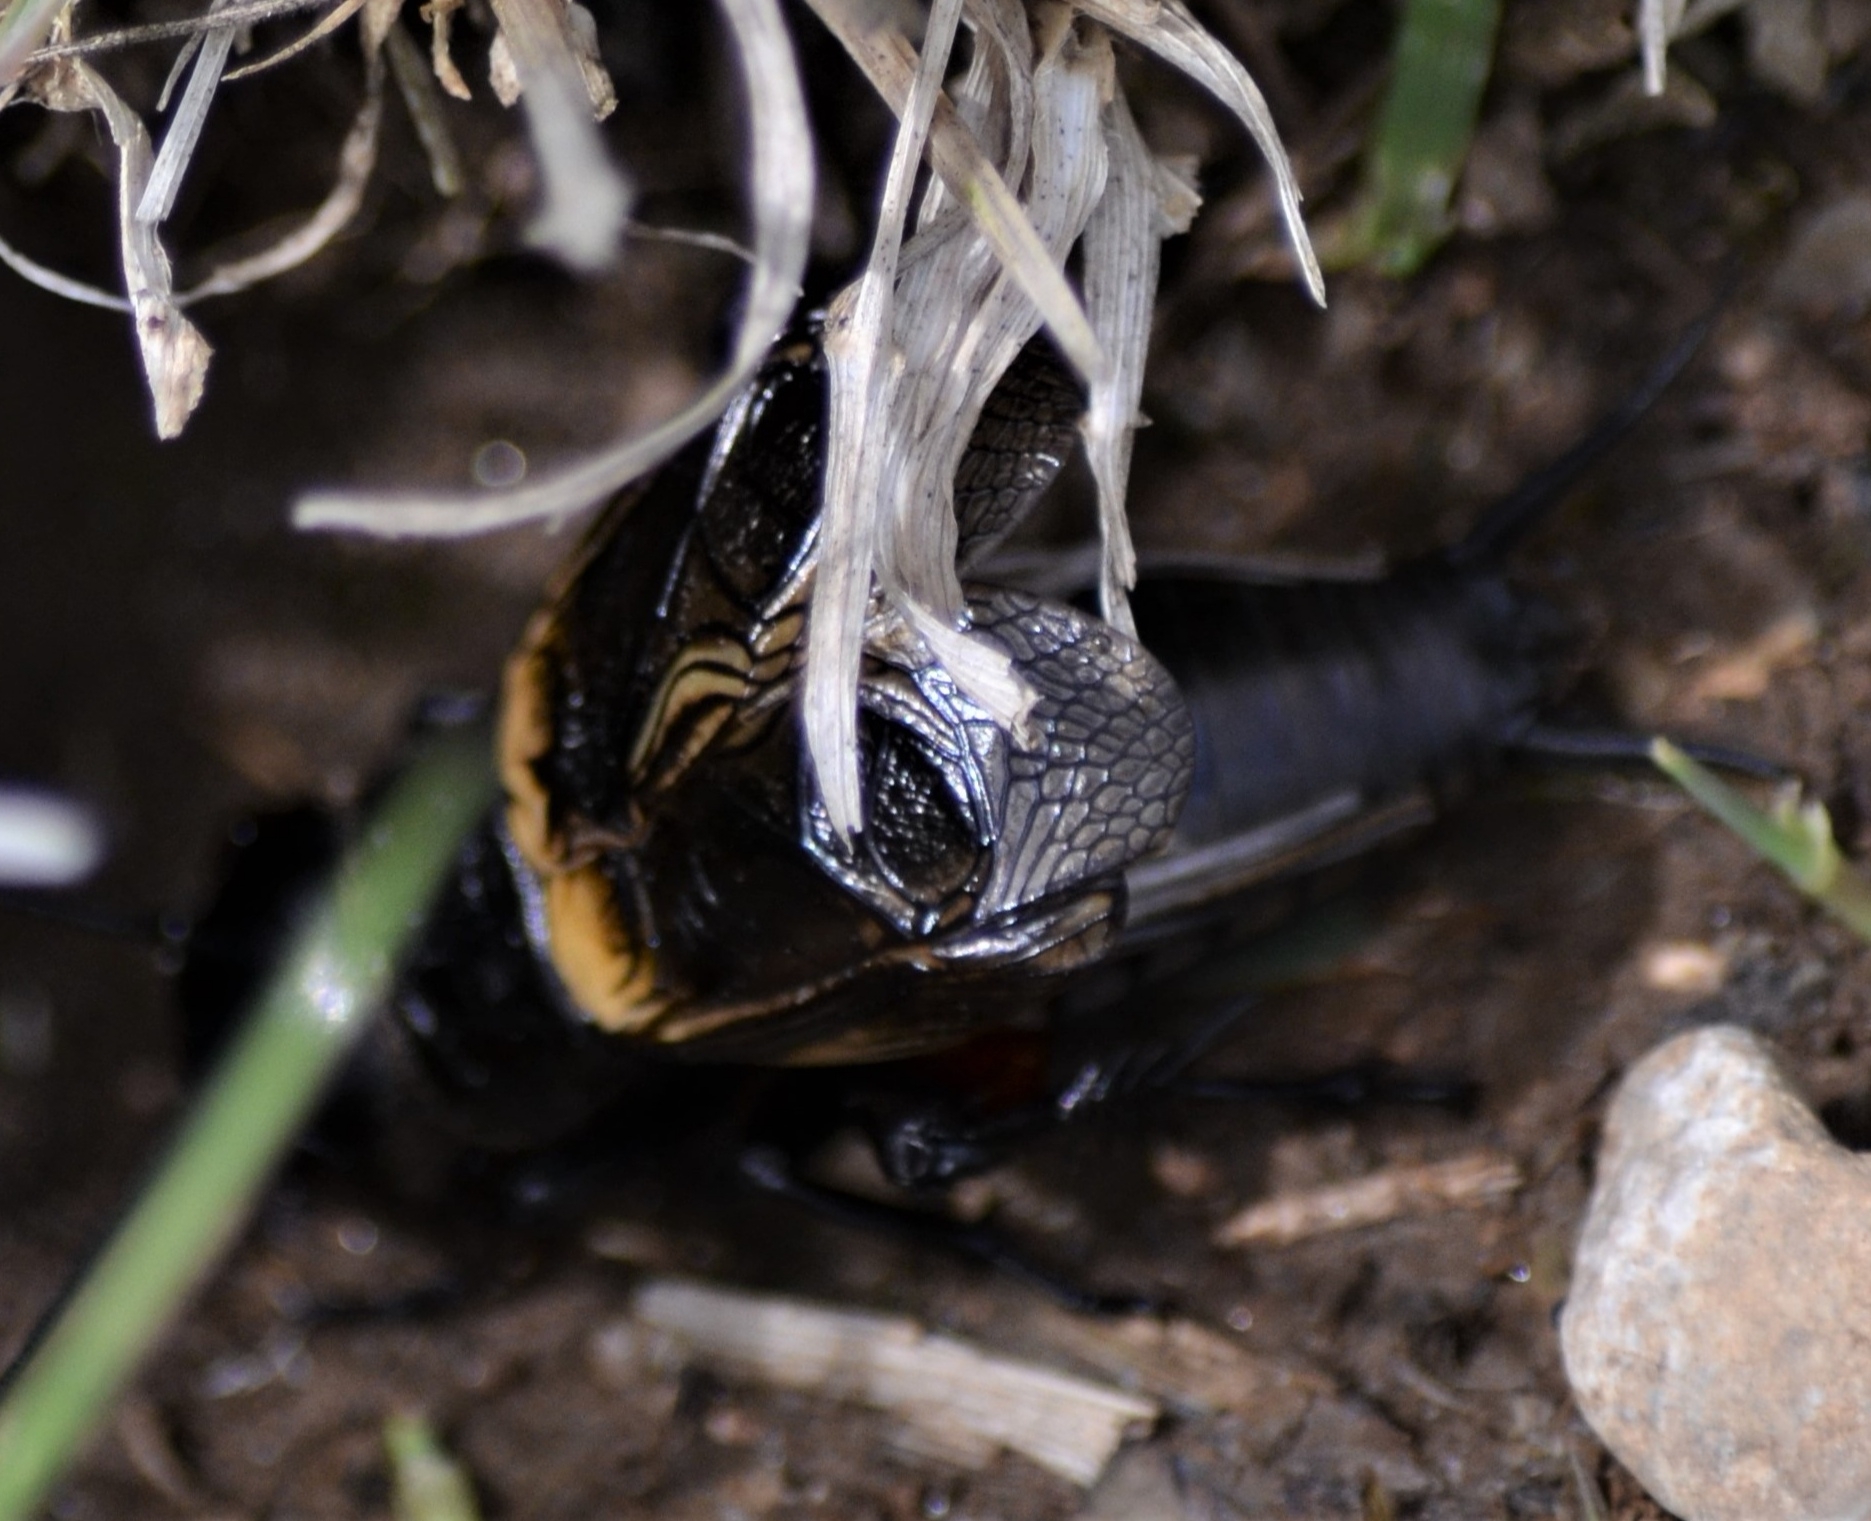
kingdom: Animalia
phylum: Arthropoda
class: Insecta
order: Orthoptera
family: Gryllidae
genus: Gryllus
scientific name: Gryllus campestris
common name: Field cricket
